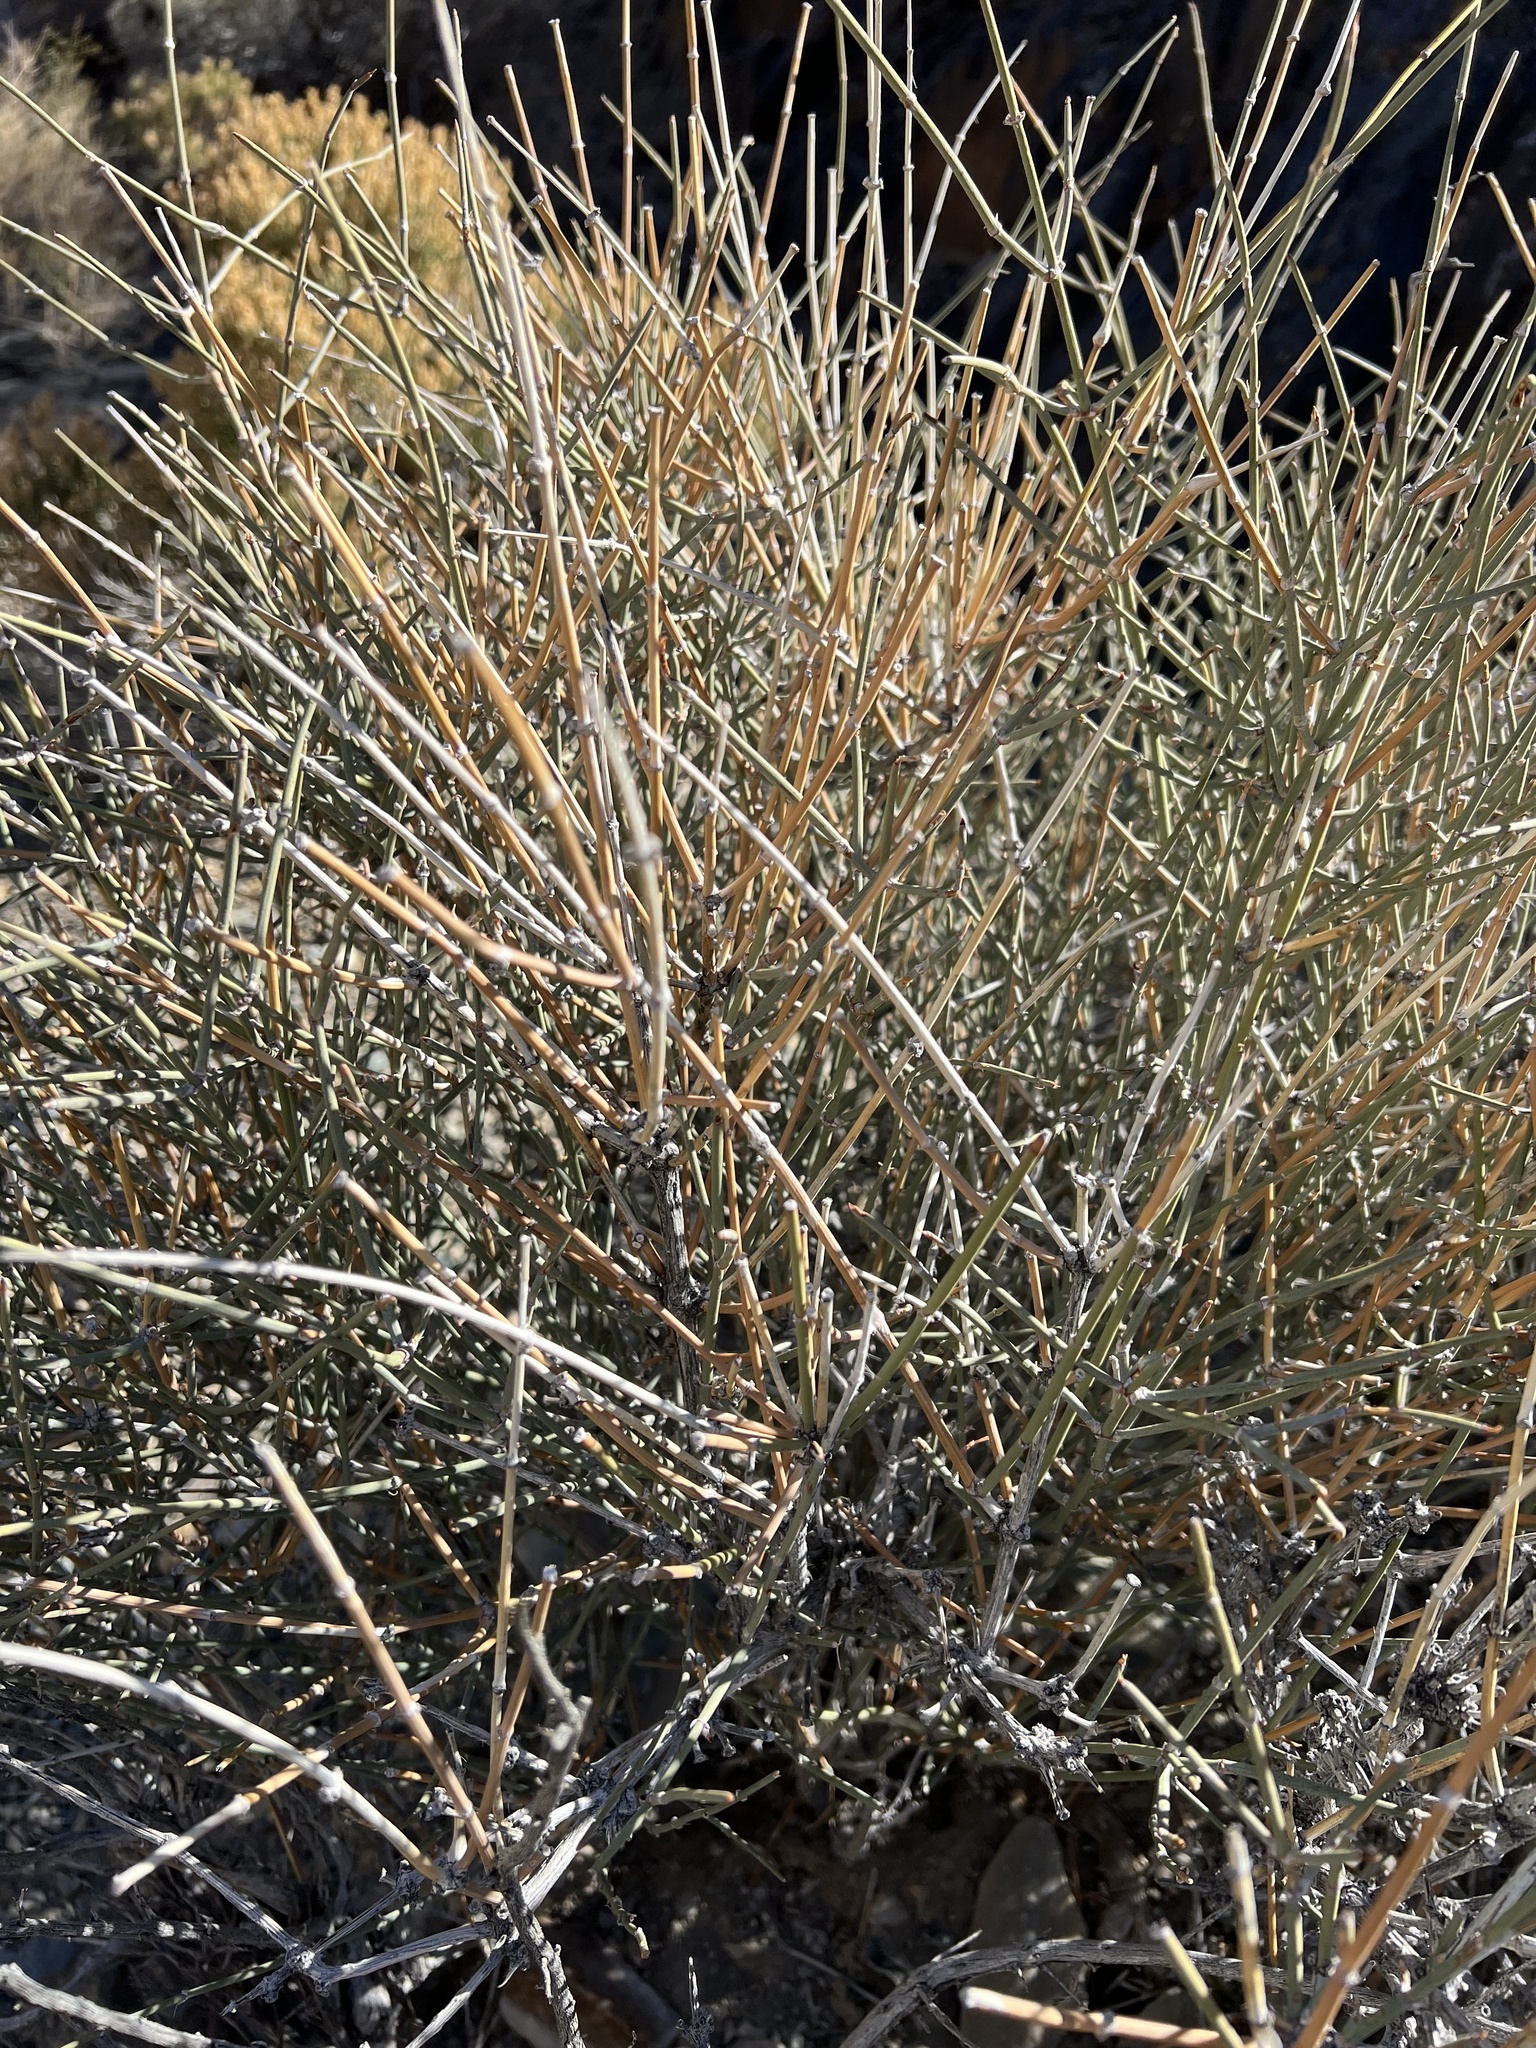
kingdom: Plantae
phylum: Tracheophyta
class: Gnetopsida
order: Ephedrales
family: Ephedraceae
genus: Ephedra
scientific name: Ephedra nevadensis
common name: Gray ephedra
